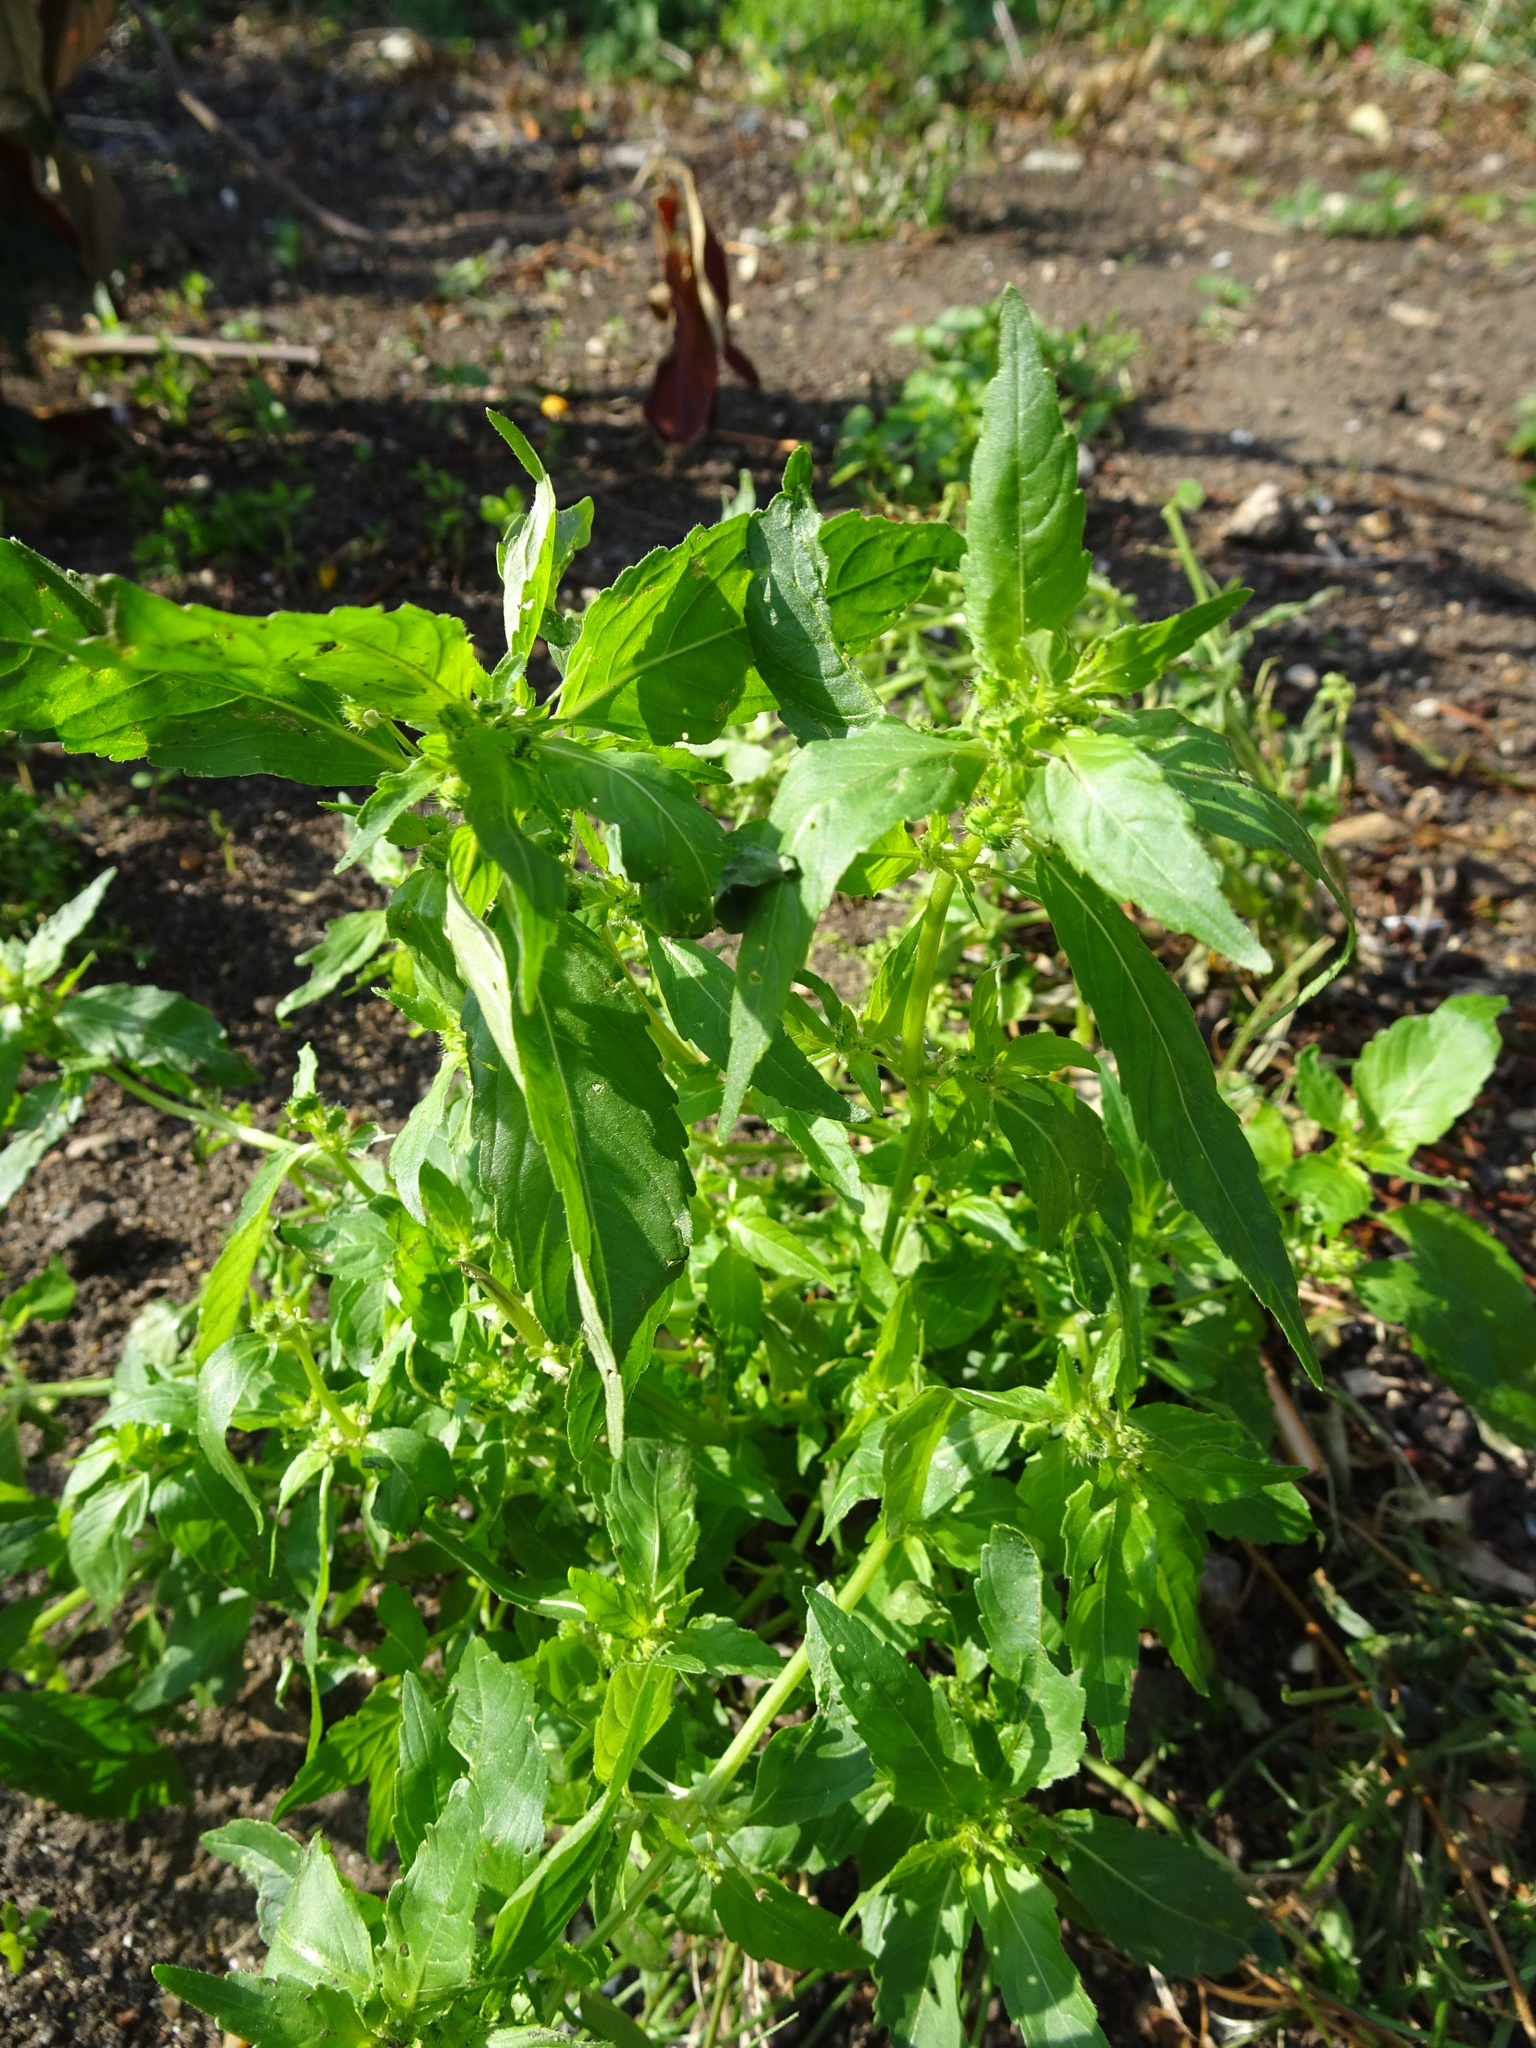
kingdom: Plantae
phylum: Tracheophyta
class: Magnoliopsida
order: Malpighiales
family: Euphorbiaceae
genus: Mercurialis
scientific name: Mercurialis annua
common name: Annual mercury
